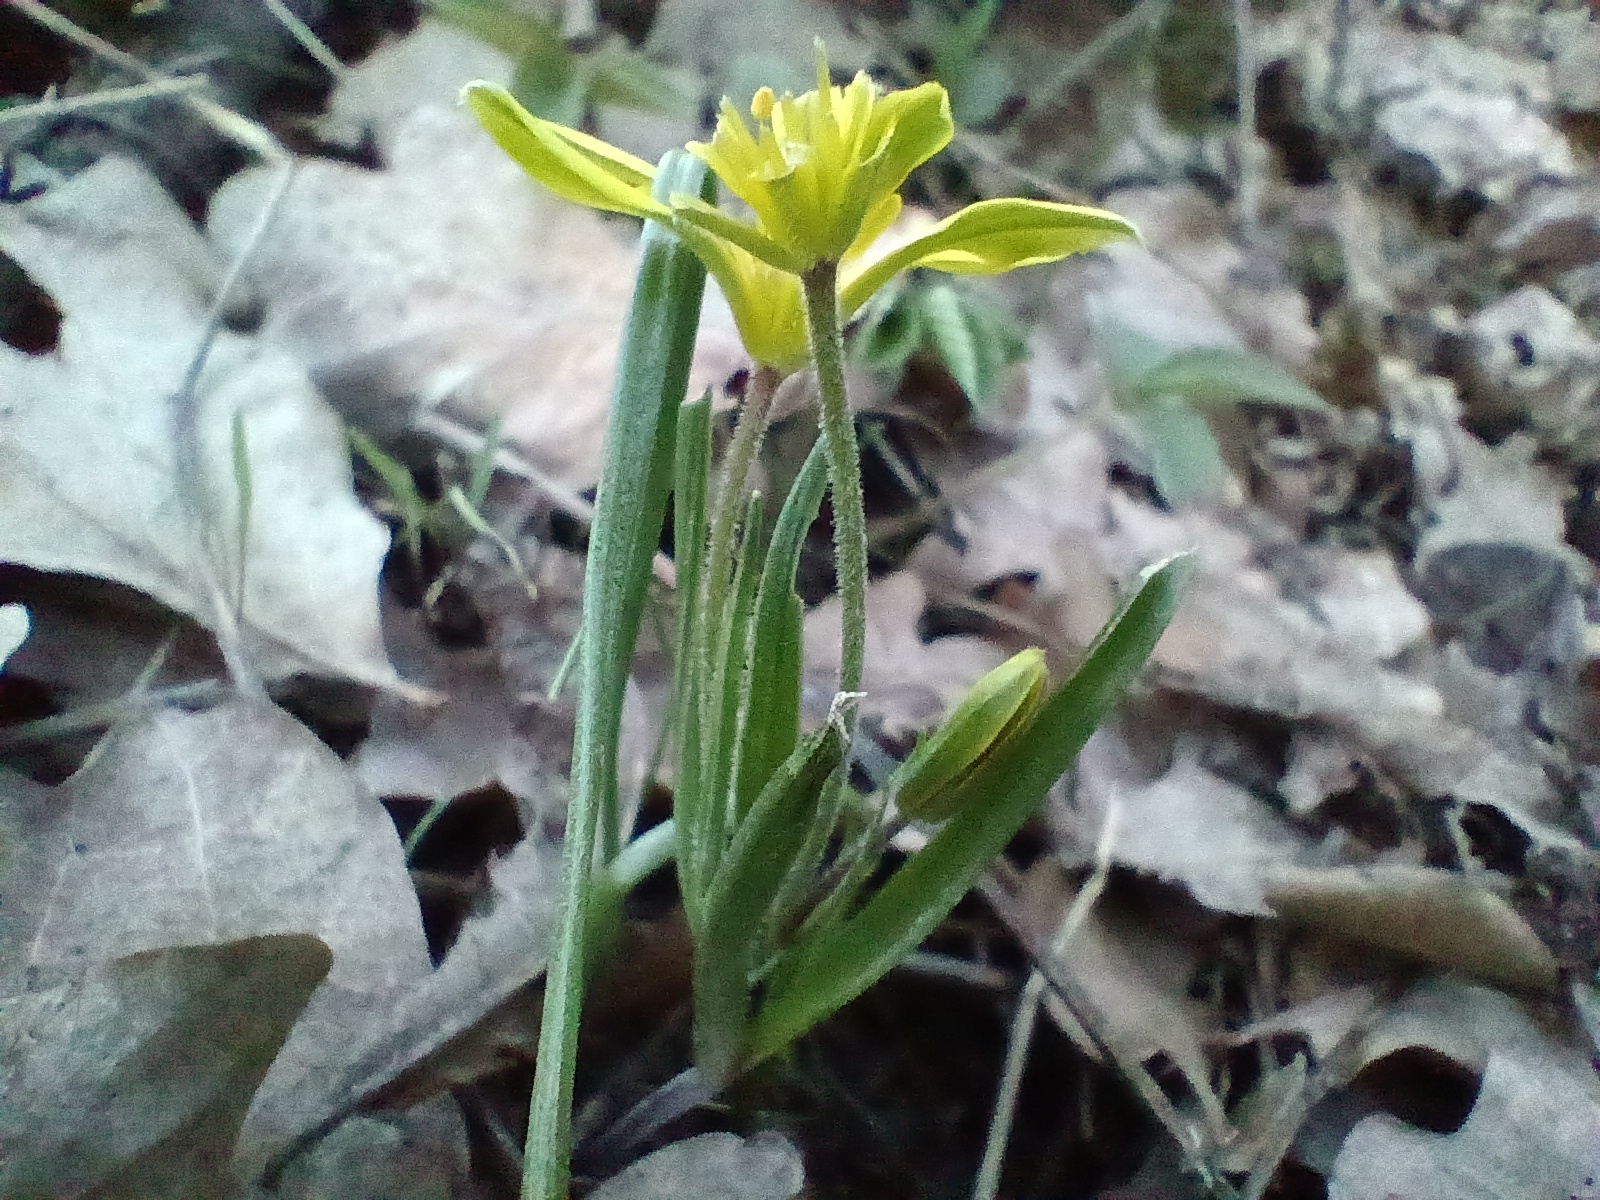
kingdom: Plantae
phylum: Tracheophyta
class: Liliopsida
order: Liliales
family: Liliaceae
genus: Gagea
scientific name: Gagea villosa
